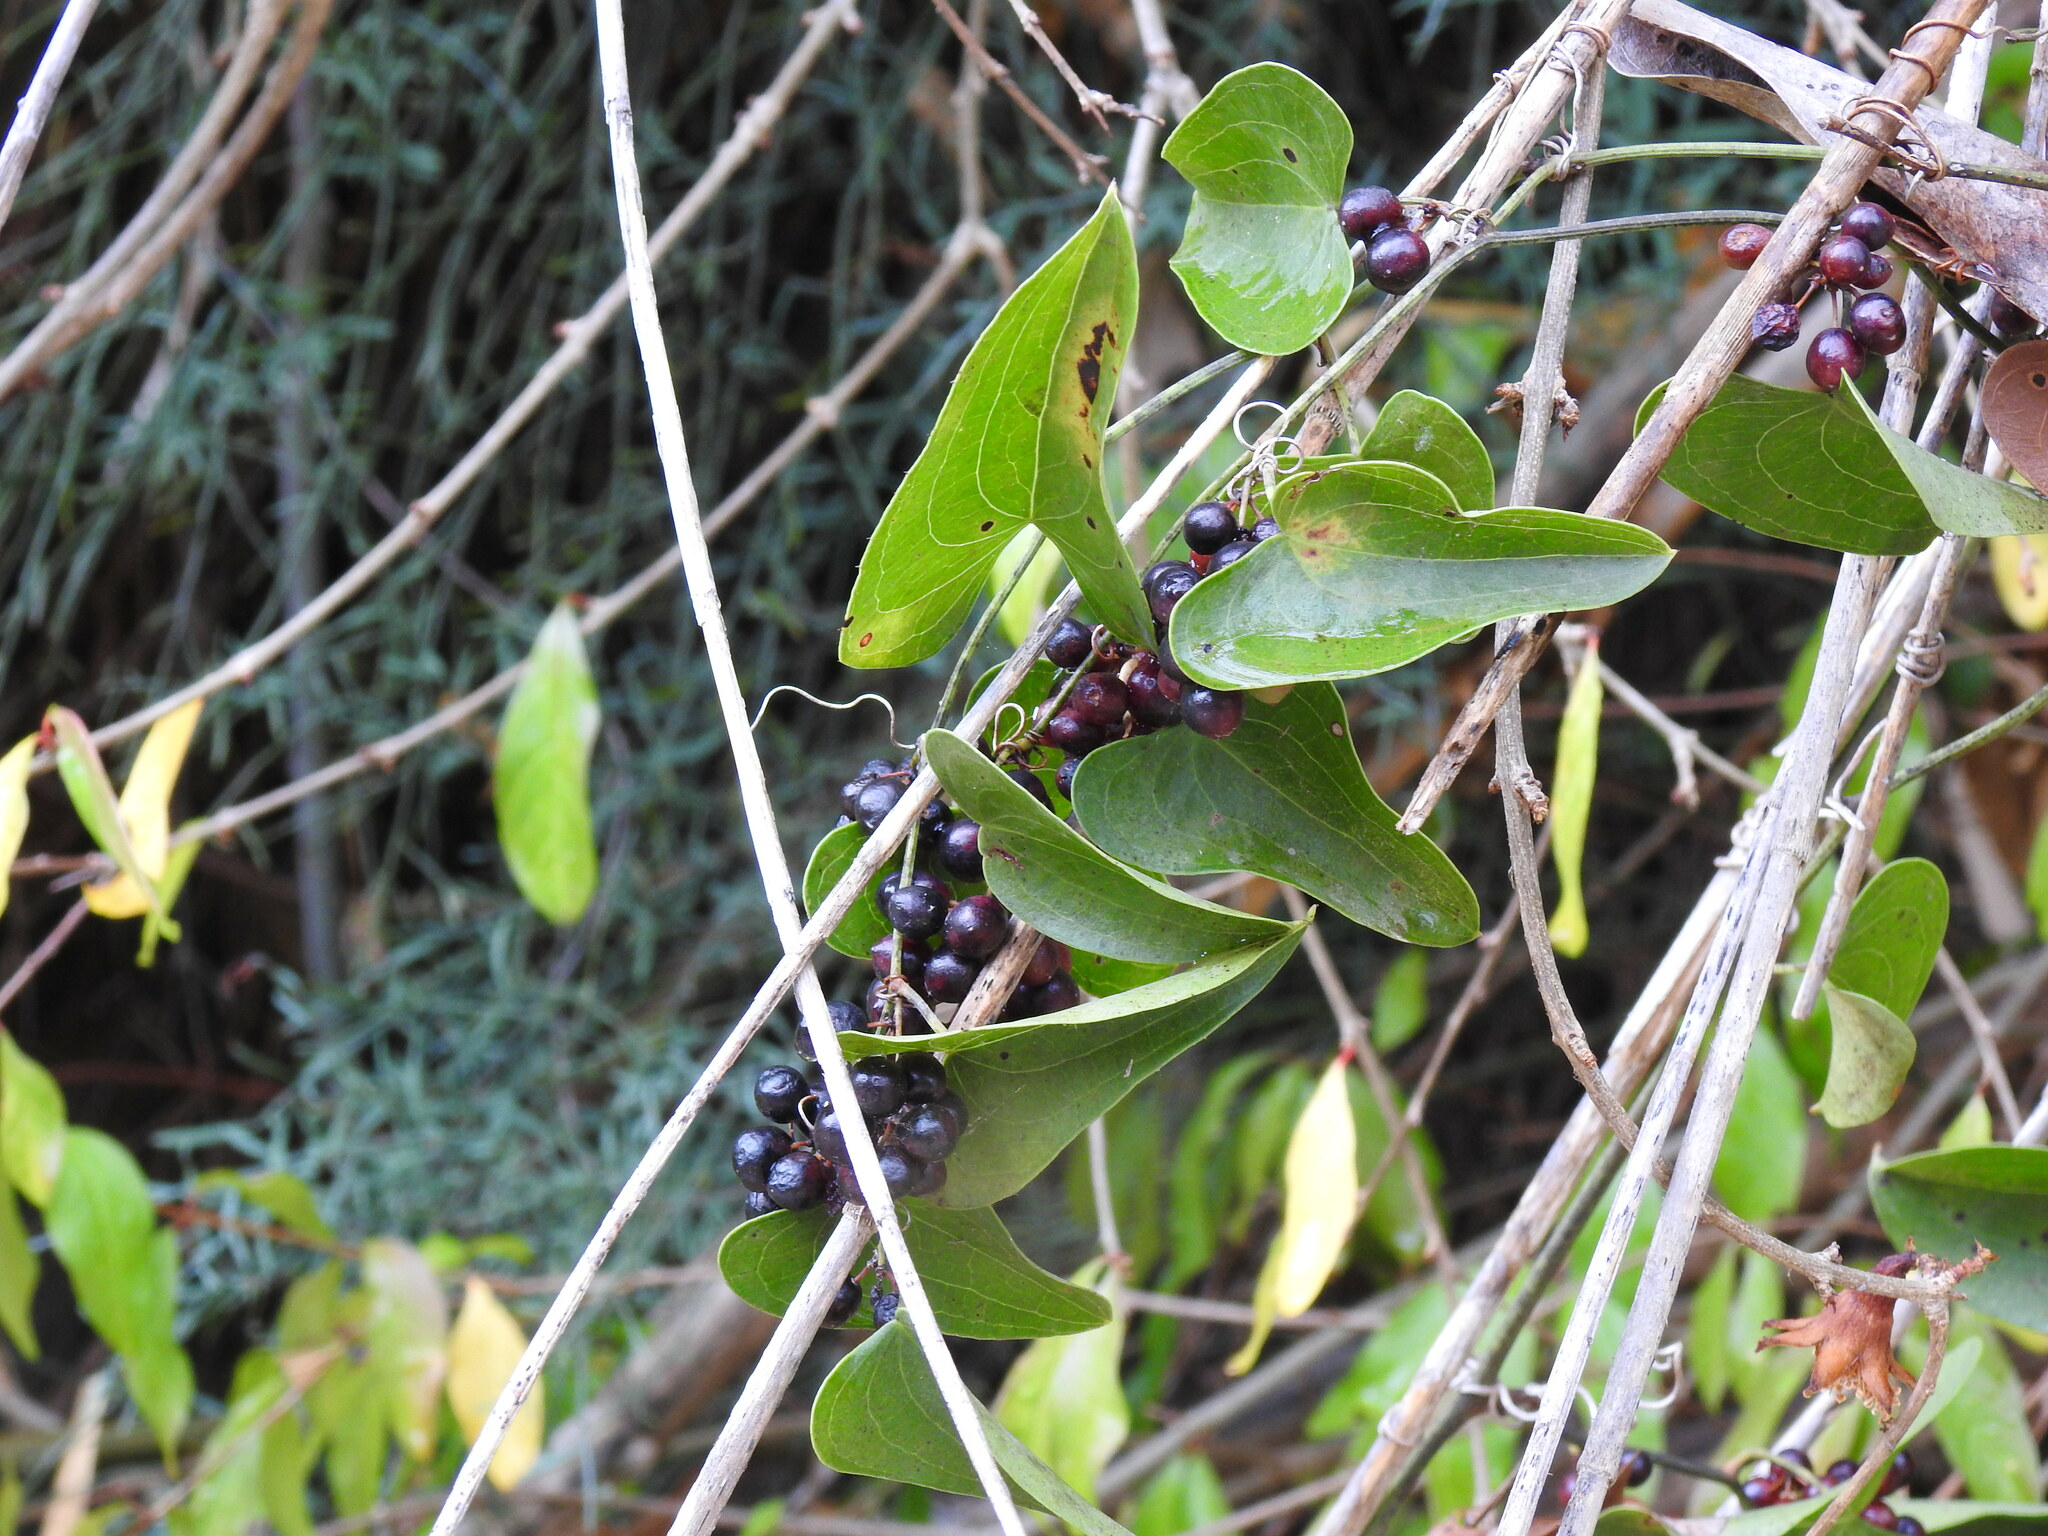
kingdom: Plantae
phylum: Tracheophyta
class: Liliopsida
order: Liliales
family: Smilacaceae
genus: Smilax
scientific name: Smilax aspera
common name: Common smilax
